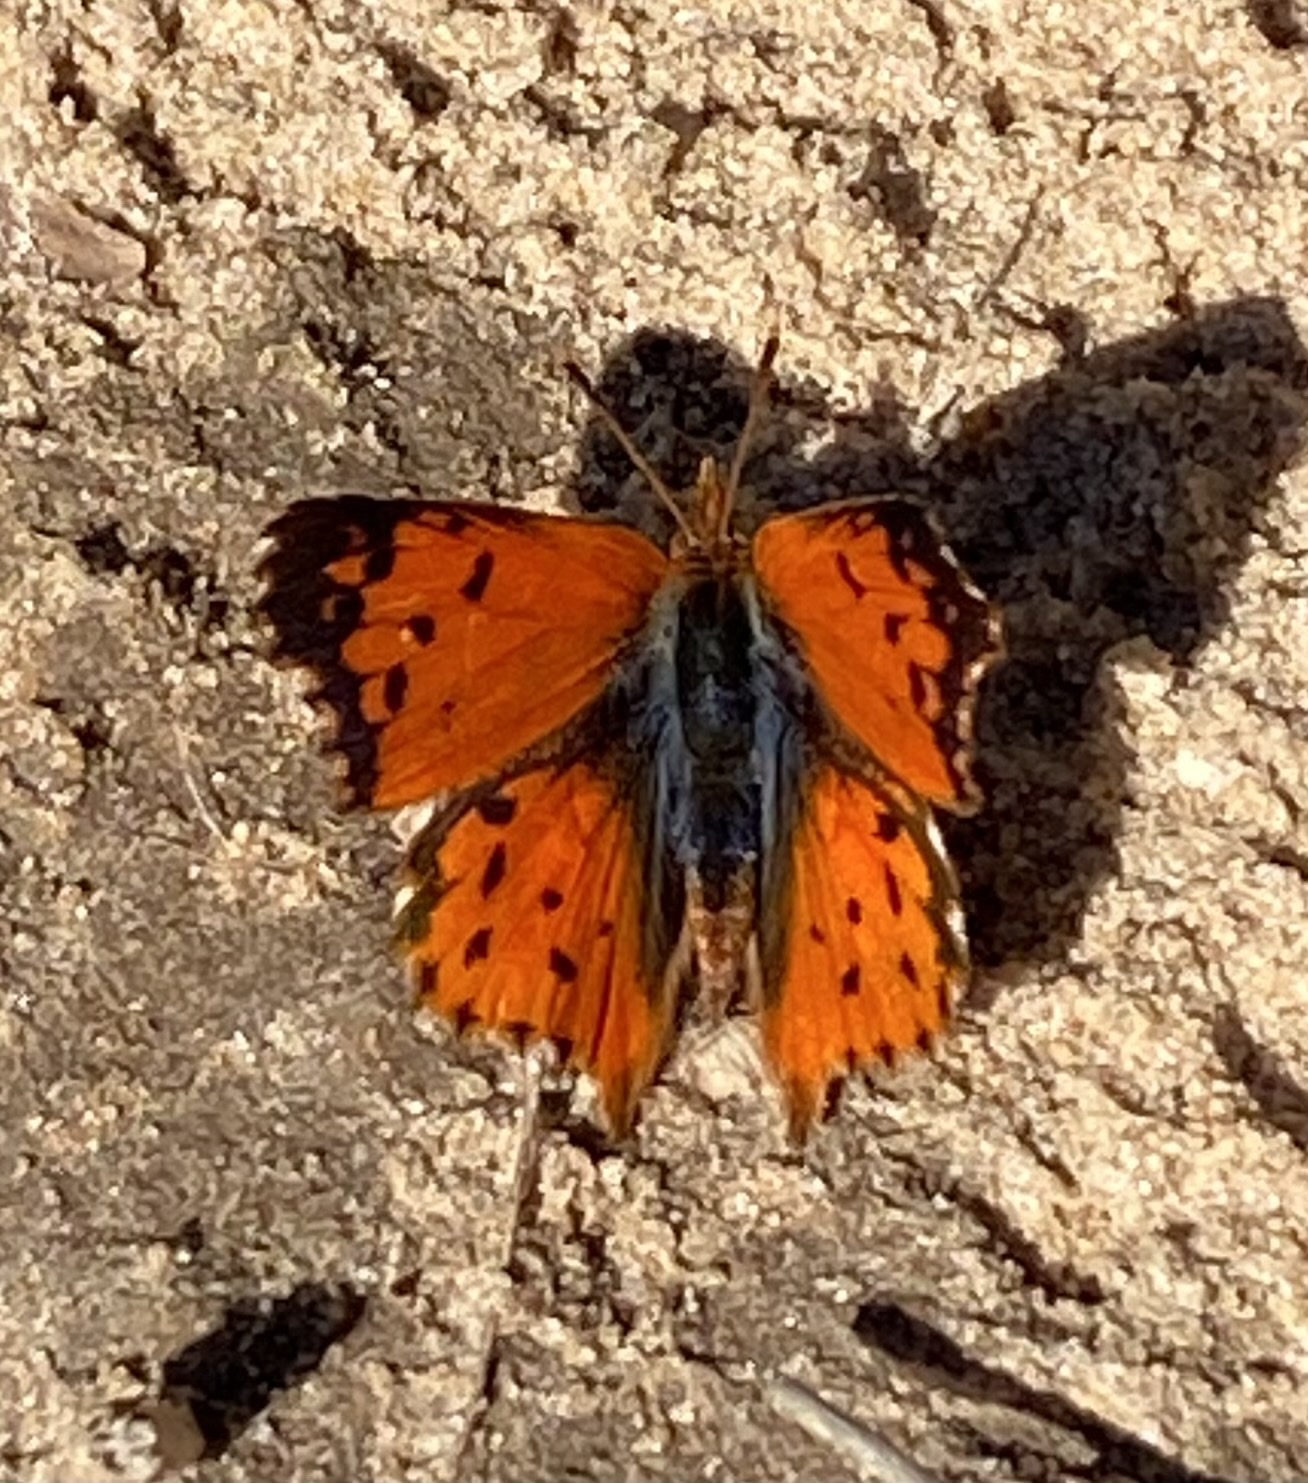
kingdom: Animalia
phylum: Arthropoda
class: Insecta
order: Lepidoptera
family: Lycaenidae
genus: Chrysoritis
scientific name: Chrysoritis
